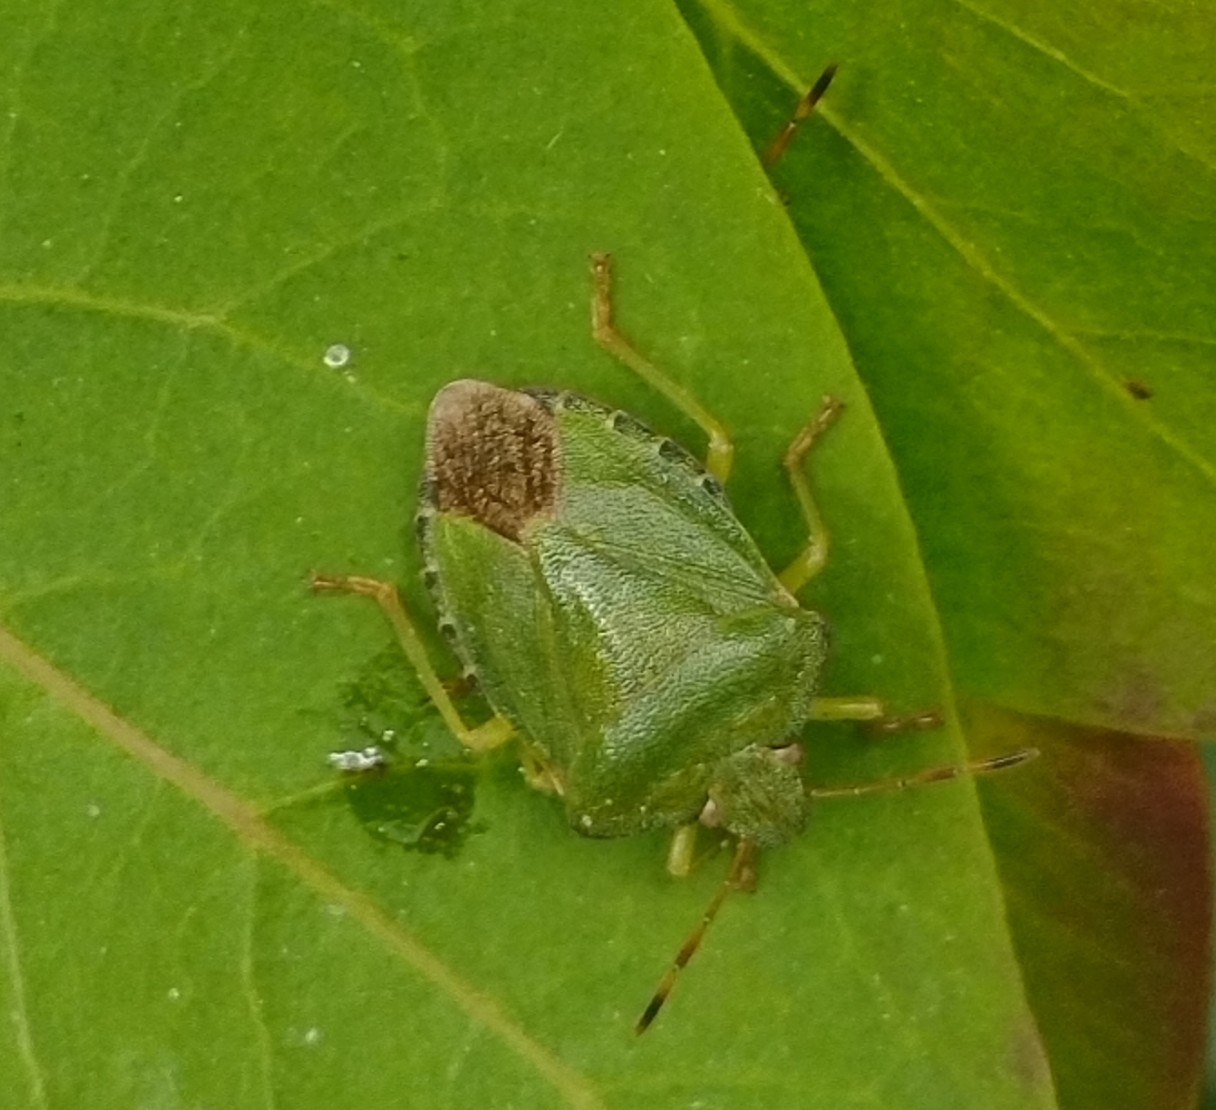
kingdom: Animalia
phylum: Arthropoda
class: Insecta
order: Hemiptera
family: Pentatomidae
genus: Palomena
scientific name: Palomena prasina
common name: Green shieldbug
